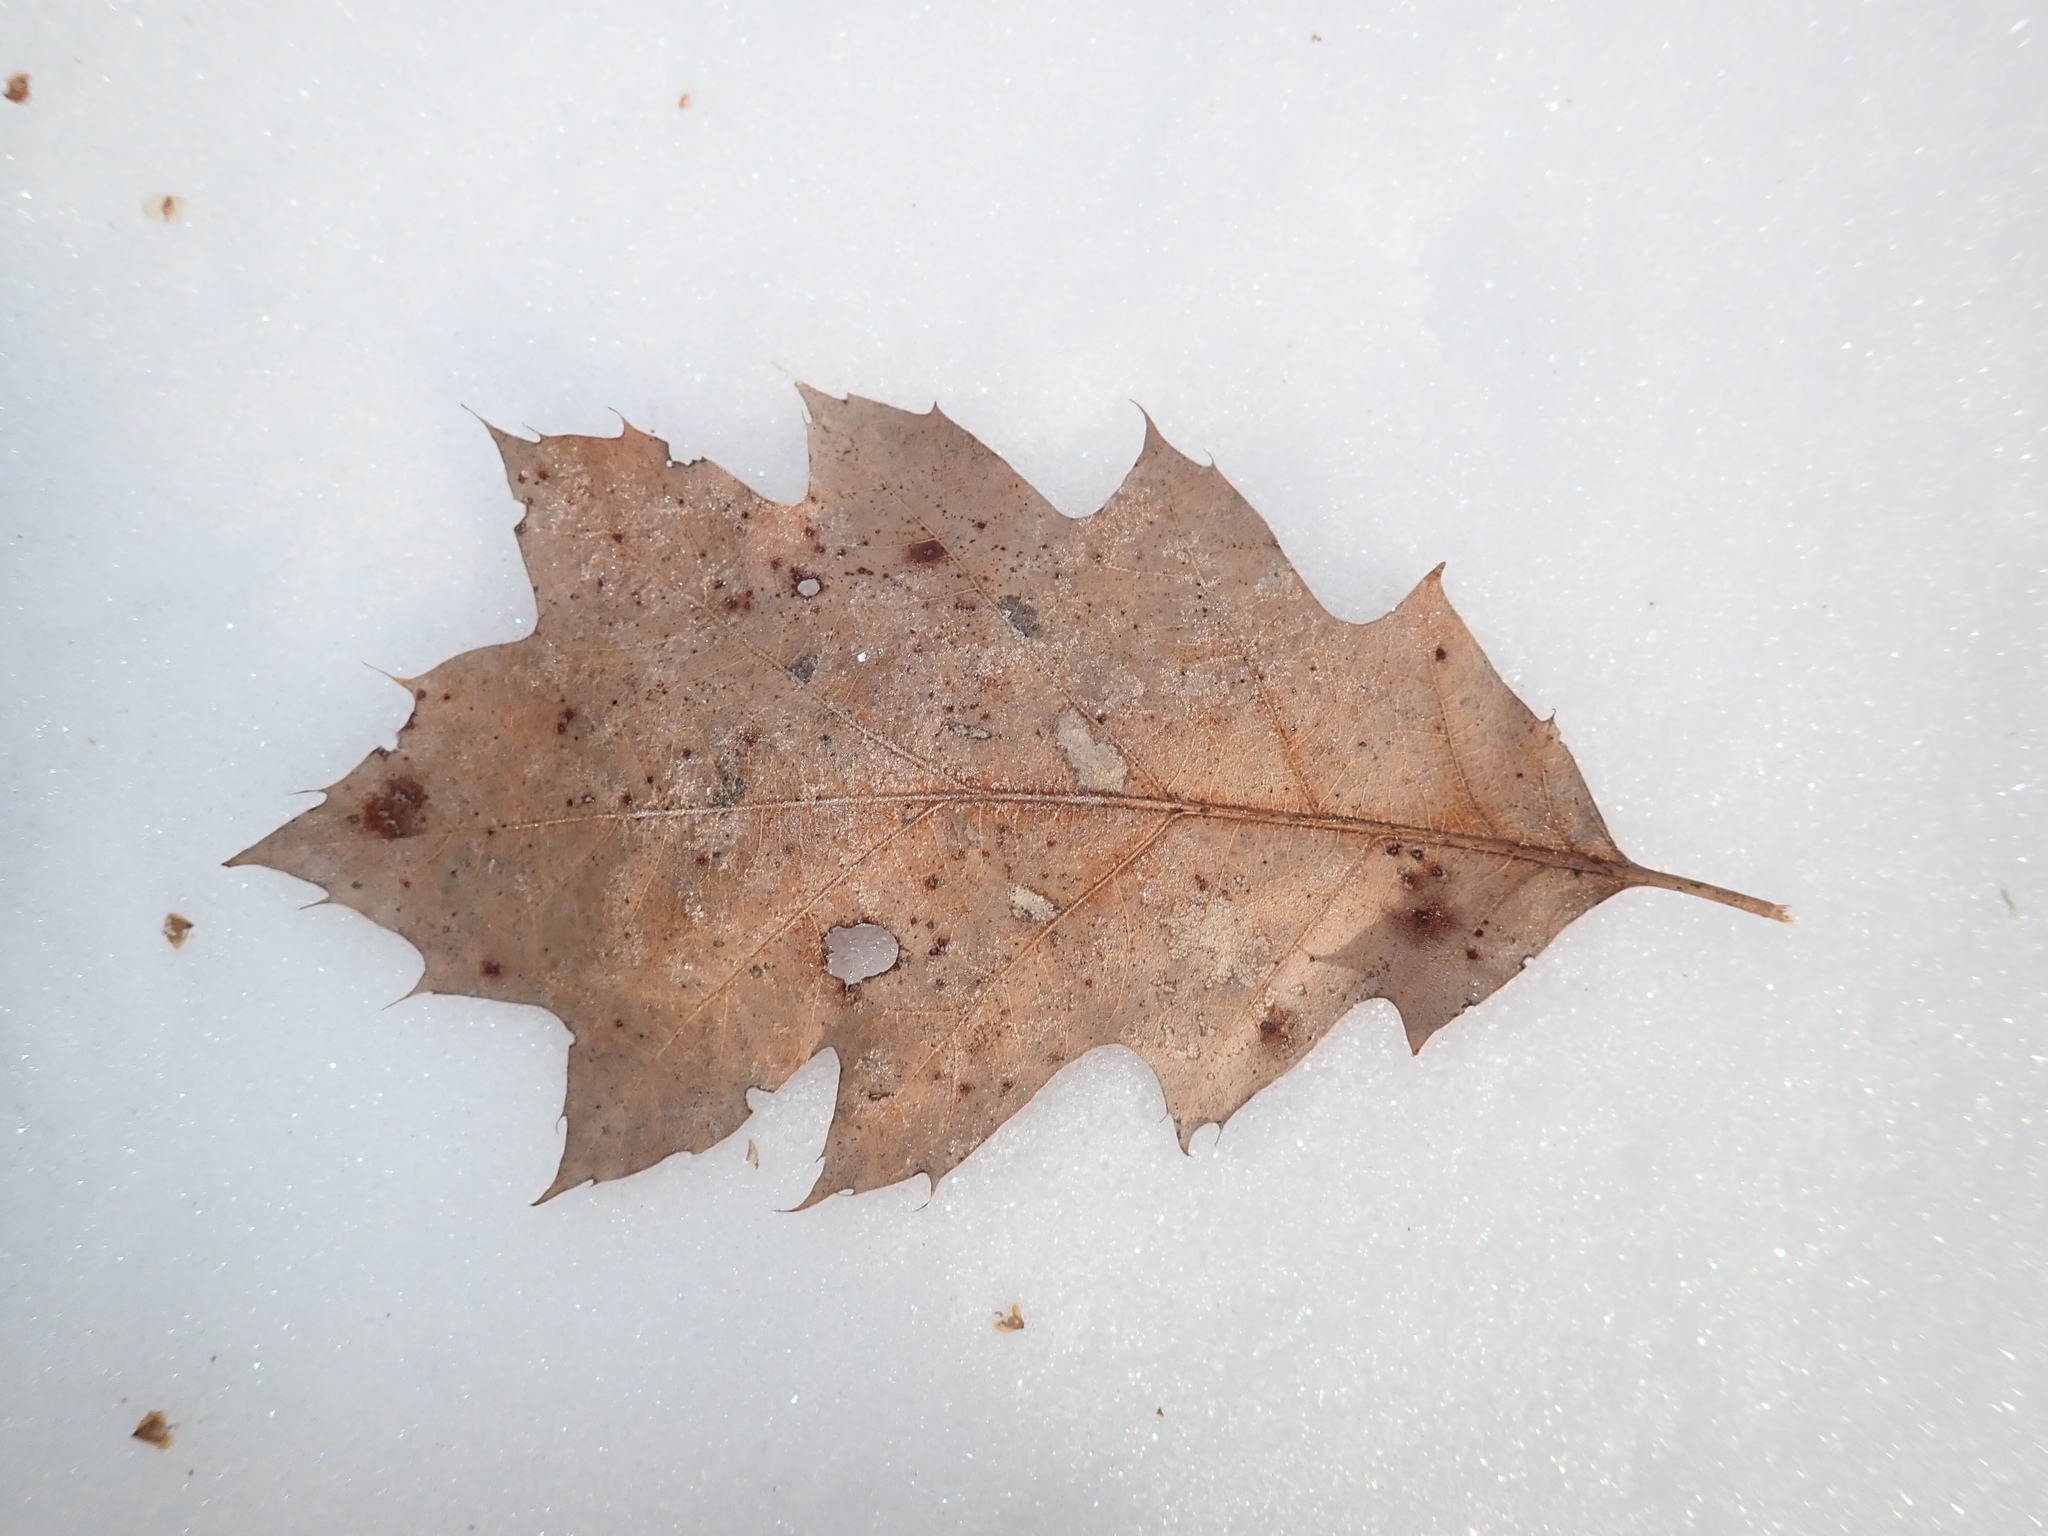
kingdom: Plantae
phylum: Tracheophyta
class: Magnoliopsida
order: Fagales
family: Fagaceae
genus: Quercus
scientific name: Quercus rubra
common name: Red oak
